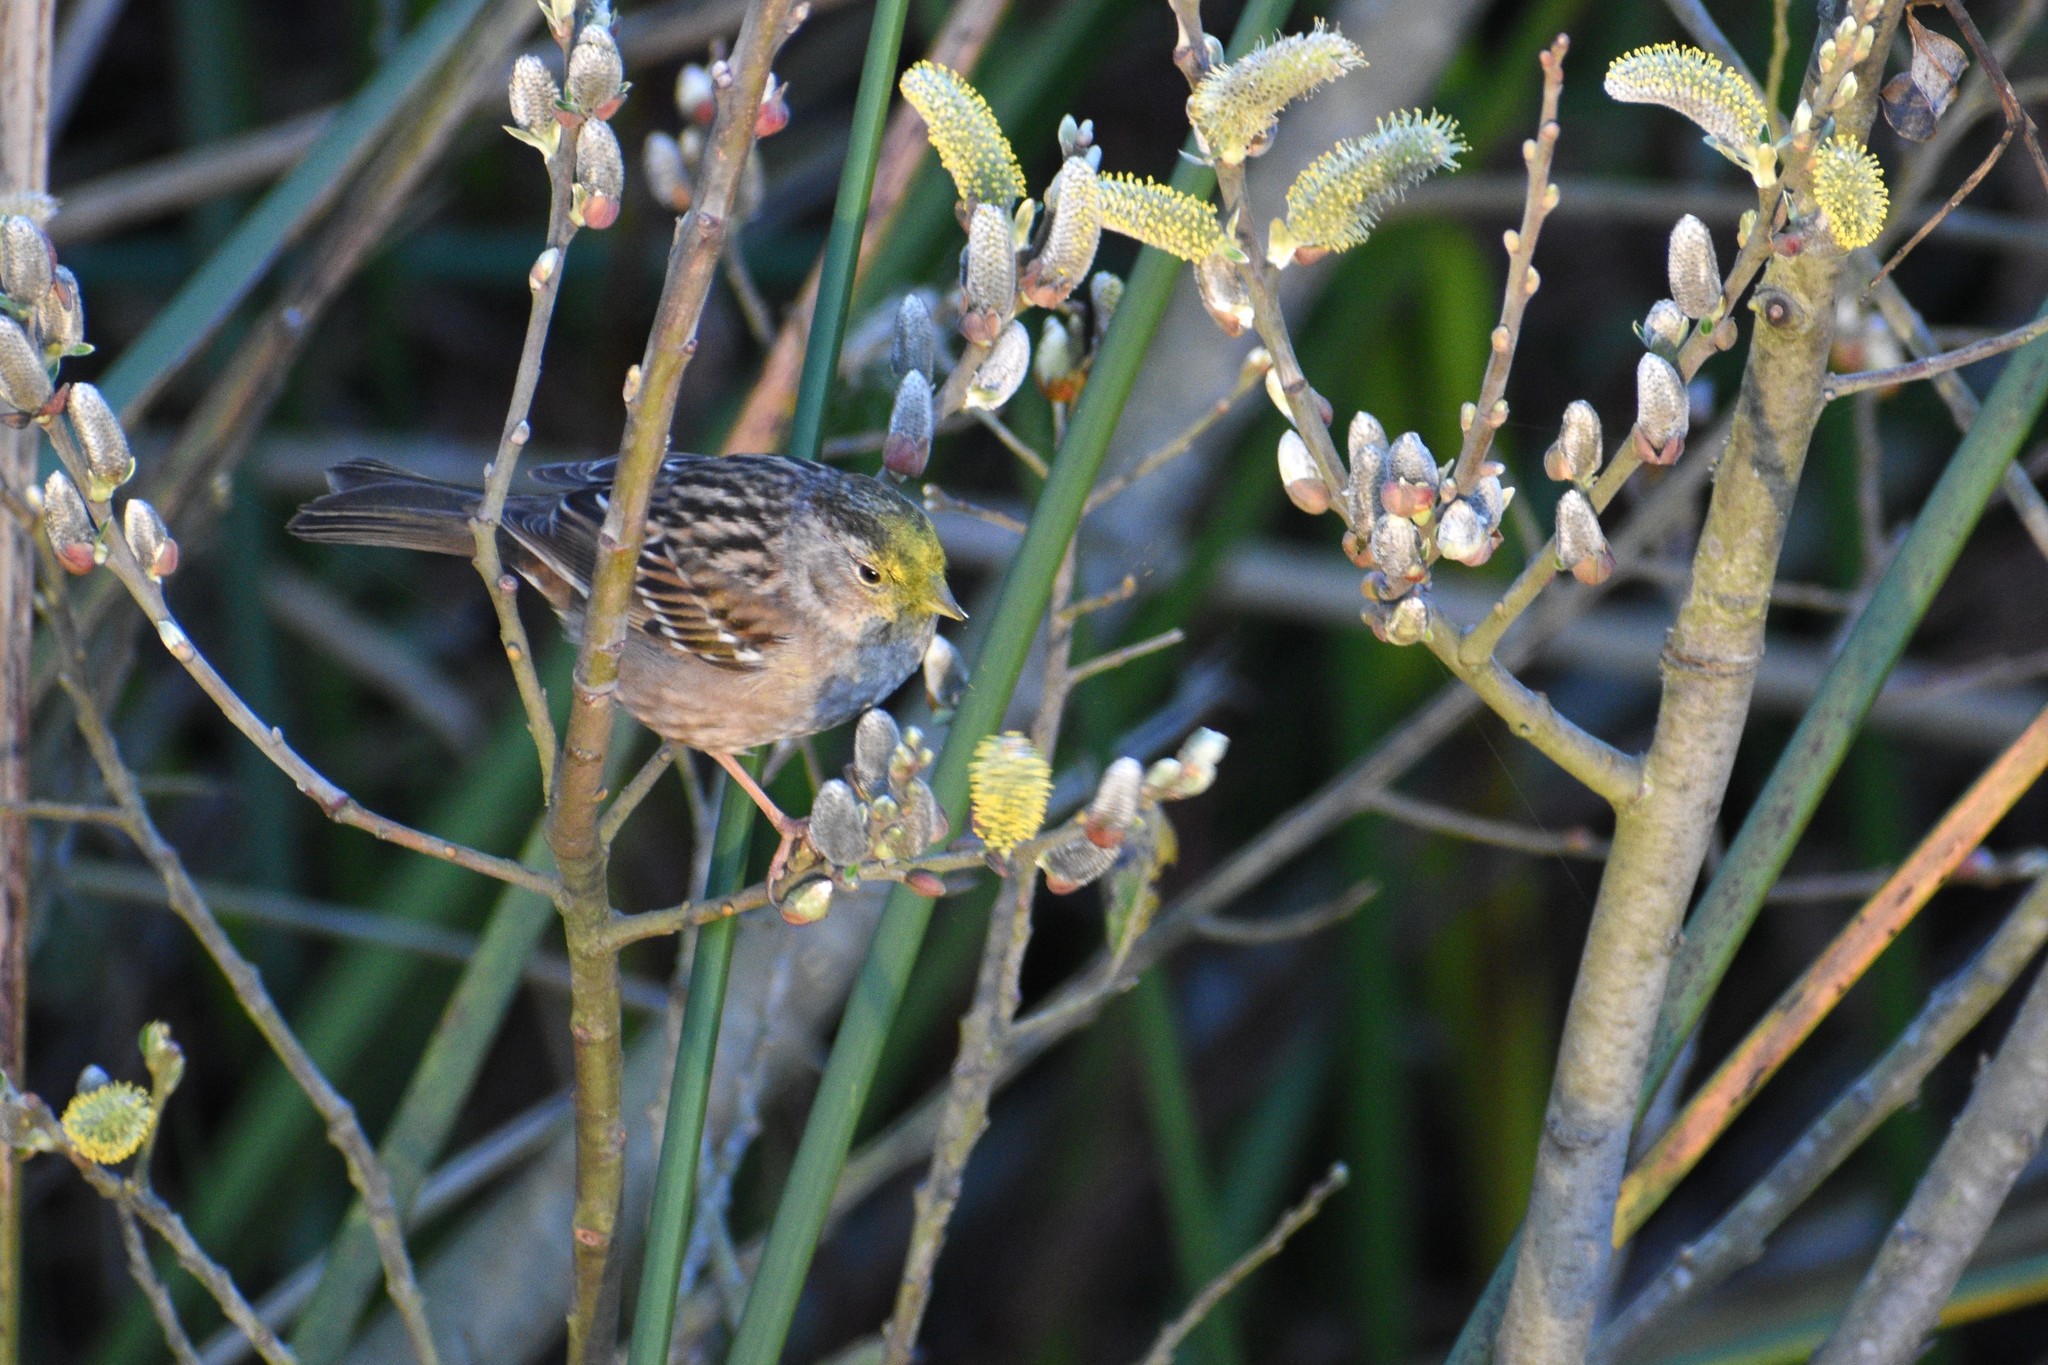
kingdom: Animalia
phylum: Chordata
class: Aves
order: Passeriformes
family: Passerellidae
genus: Zonotrichia
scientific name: Zonotrichia atricapilla
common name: Golden-crowned sparrow
